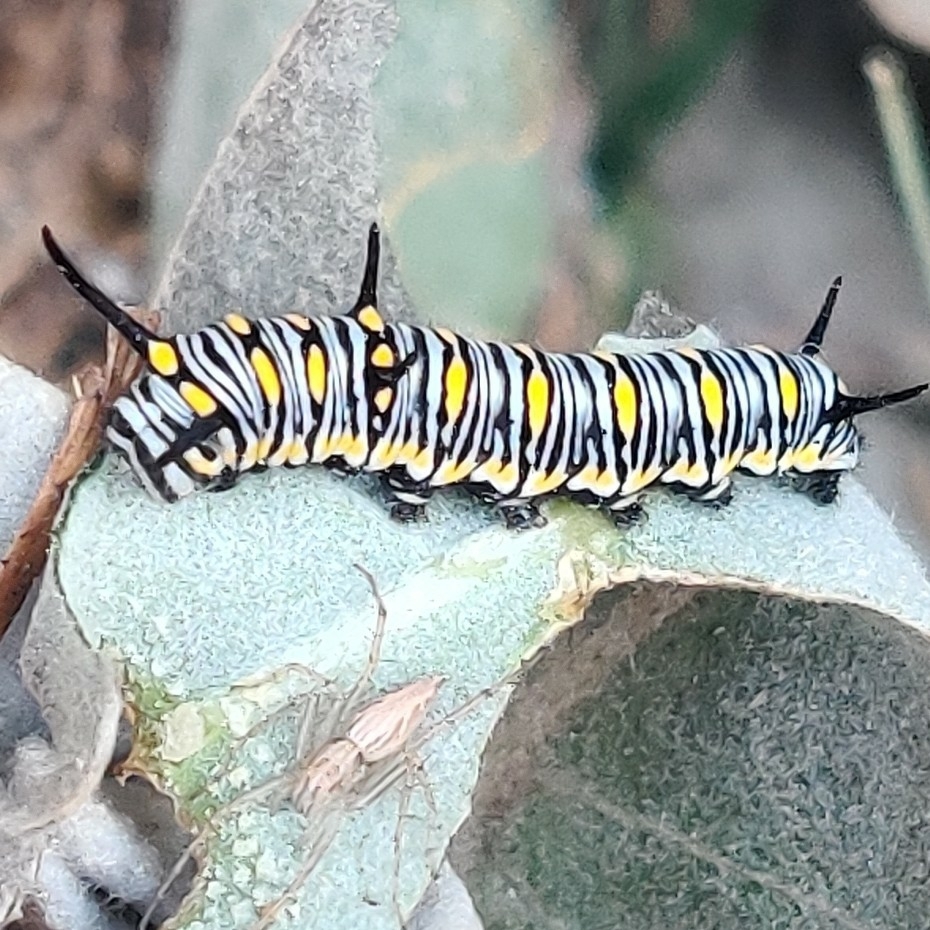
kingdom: Animalia
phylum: Arthropoda
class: Insecta
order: Lepidoptera
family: Nymphalidae
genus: Danaus
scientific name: Danaus chrysippus
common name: Plain tiger
